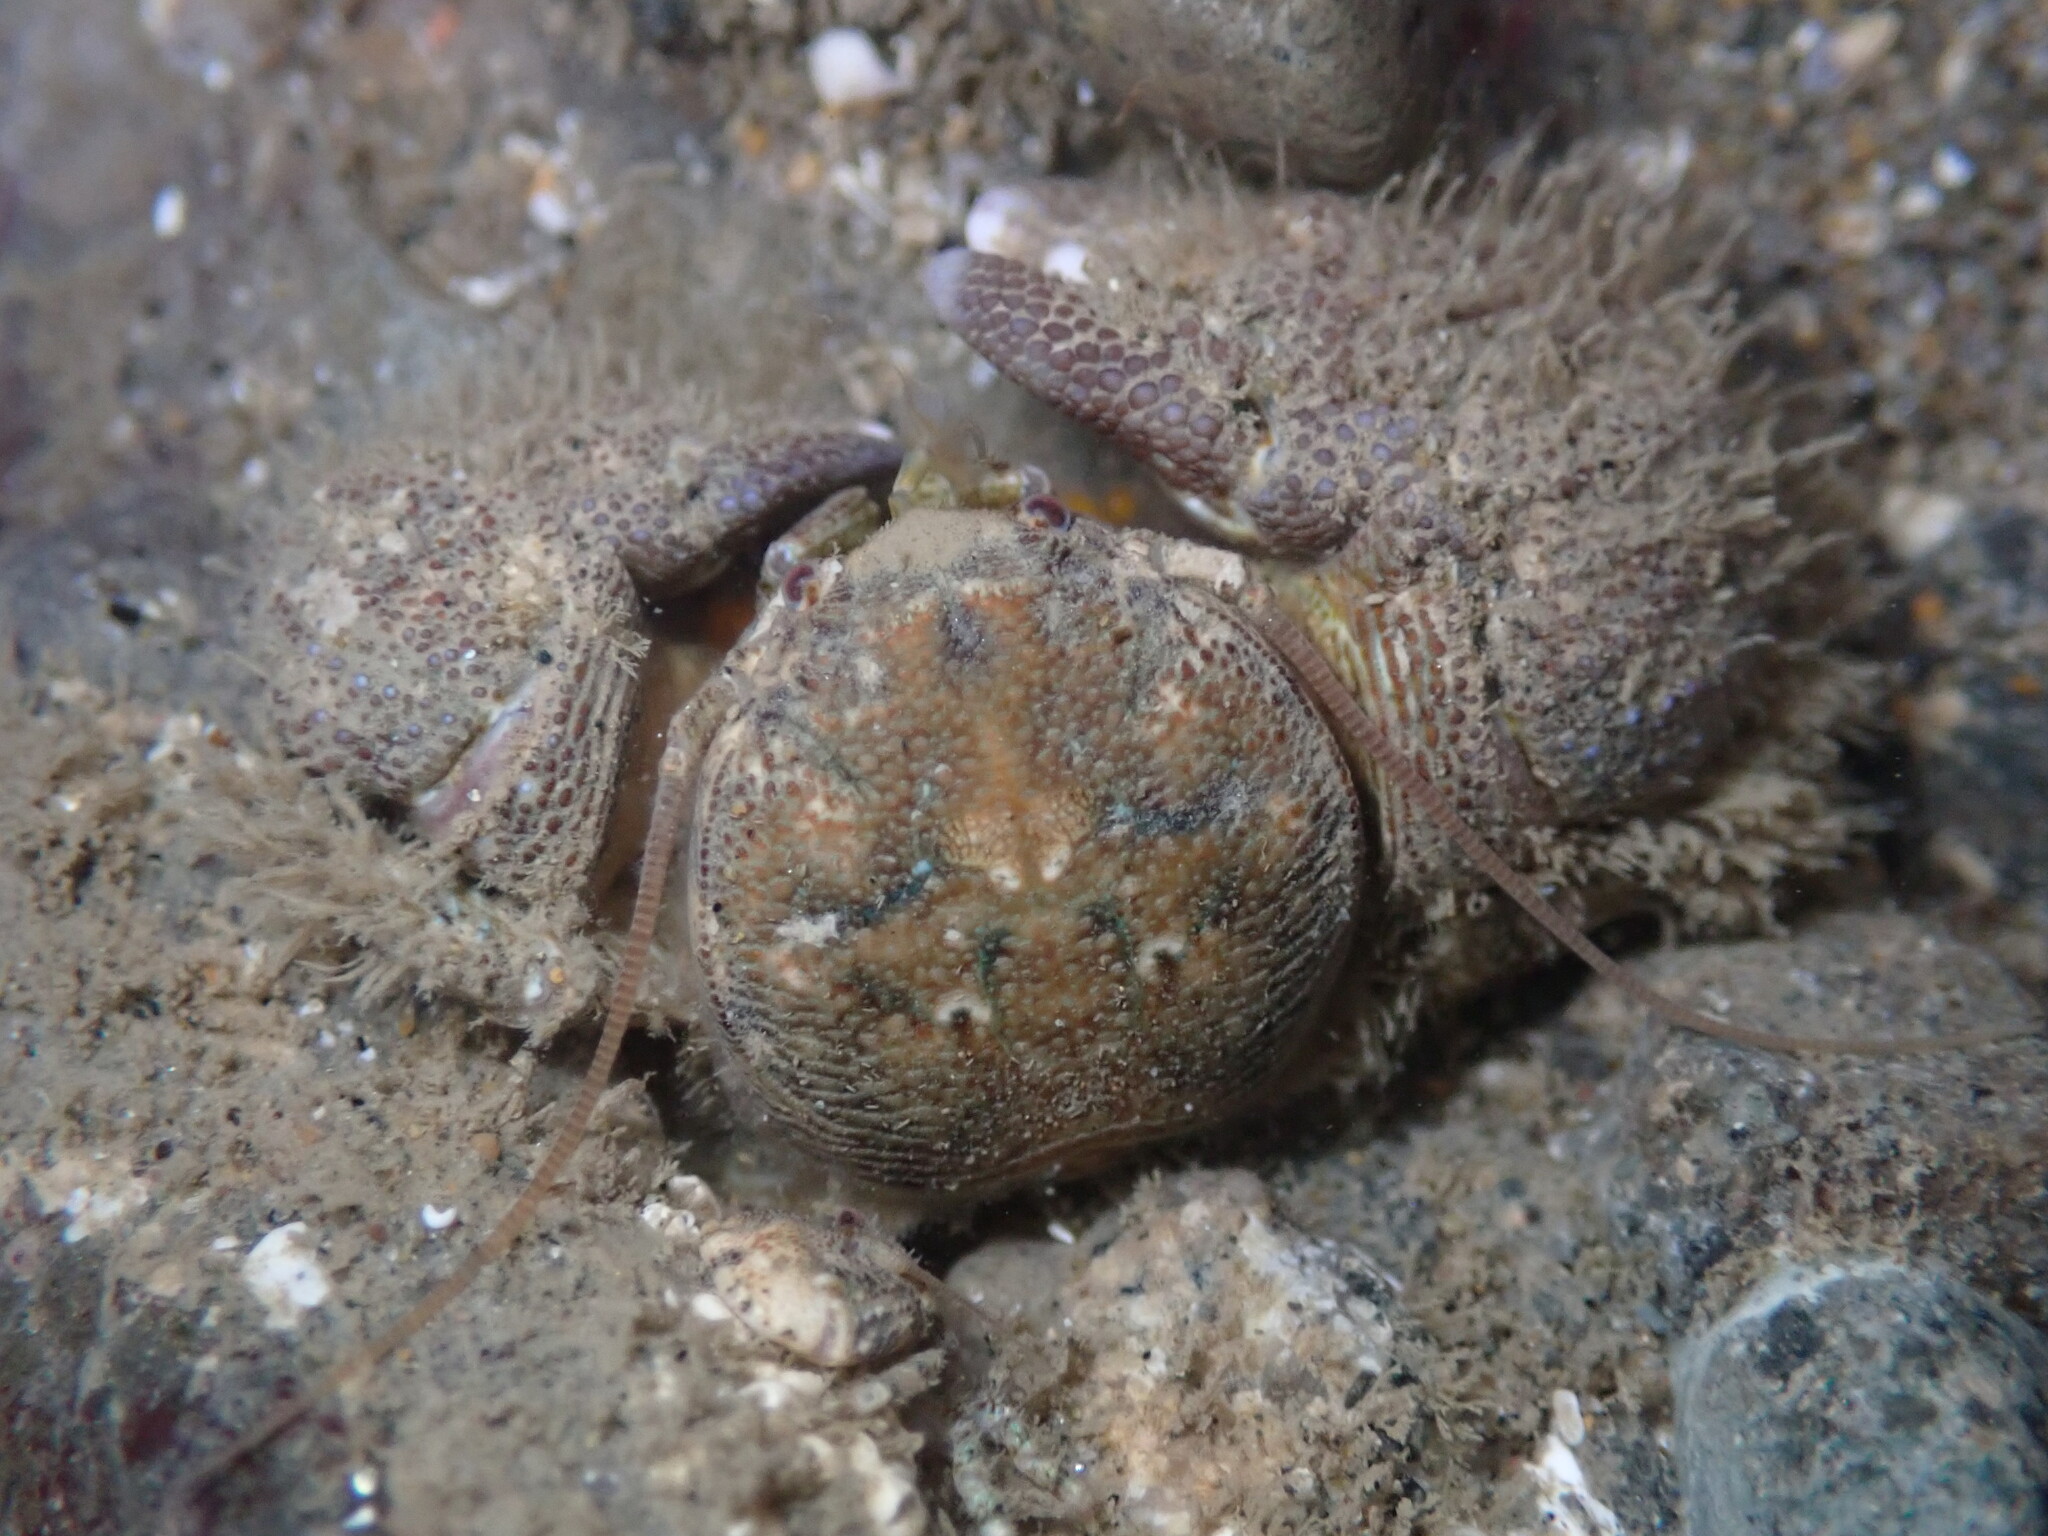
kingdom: Animalia
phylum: Arthropoda
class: Malacostraca
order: Decapoda
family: Porcellanidae
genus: Pachycheles
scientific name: Pachycheles rudis
